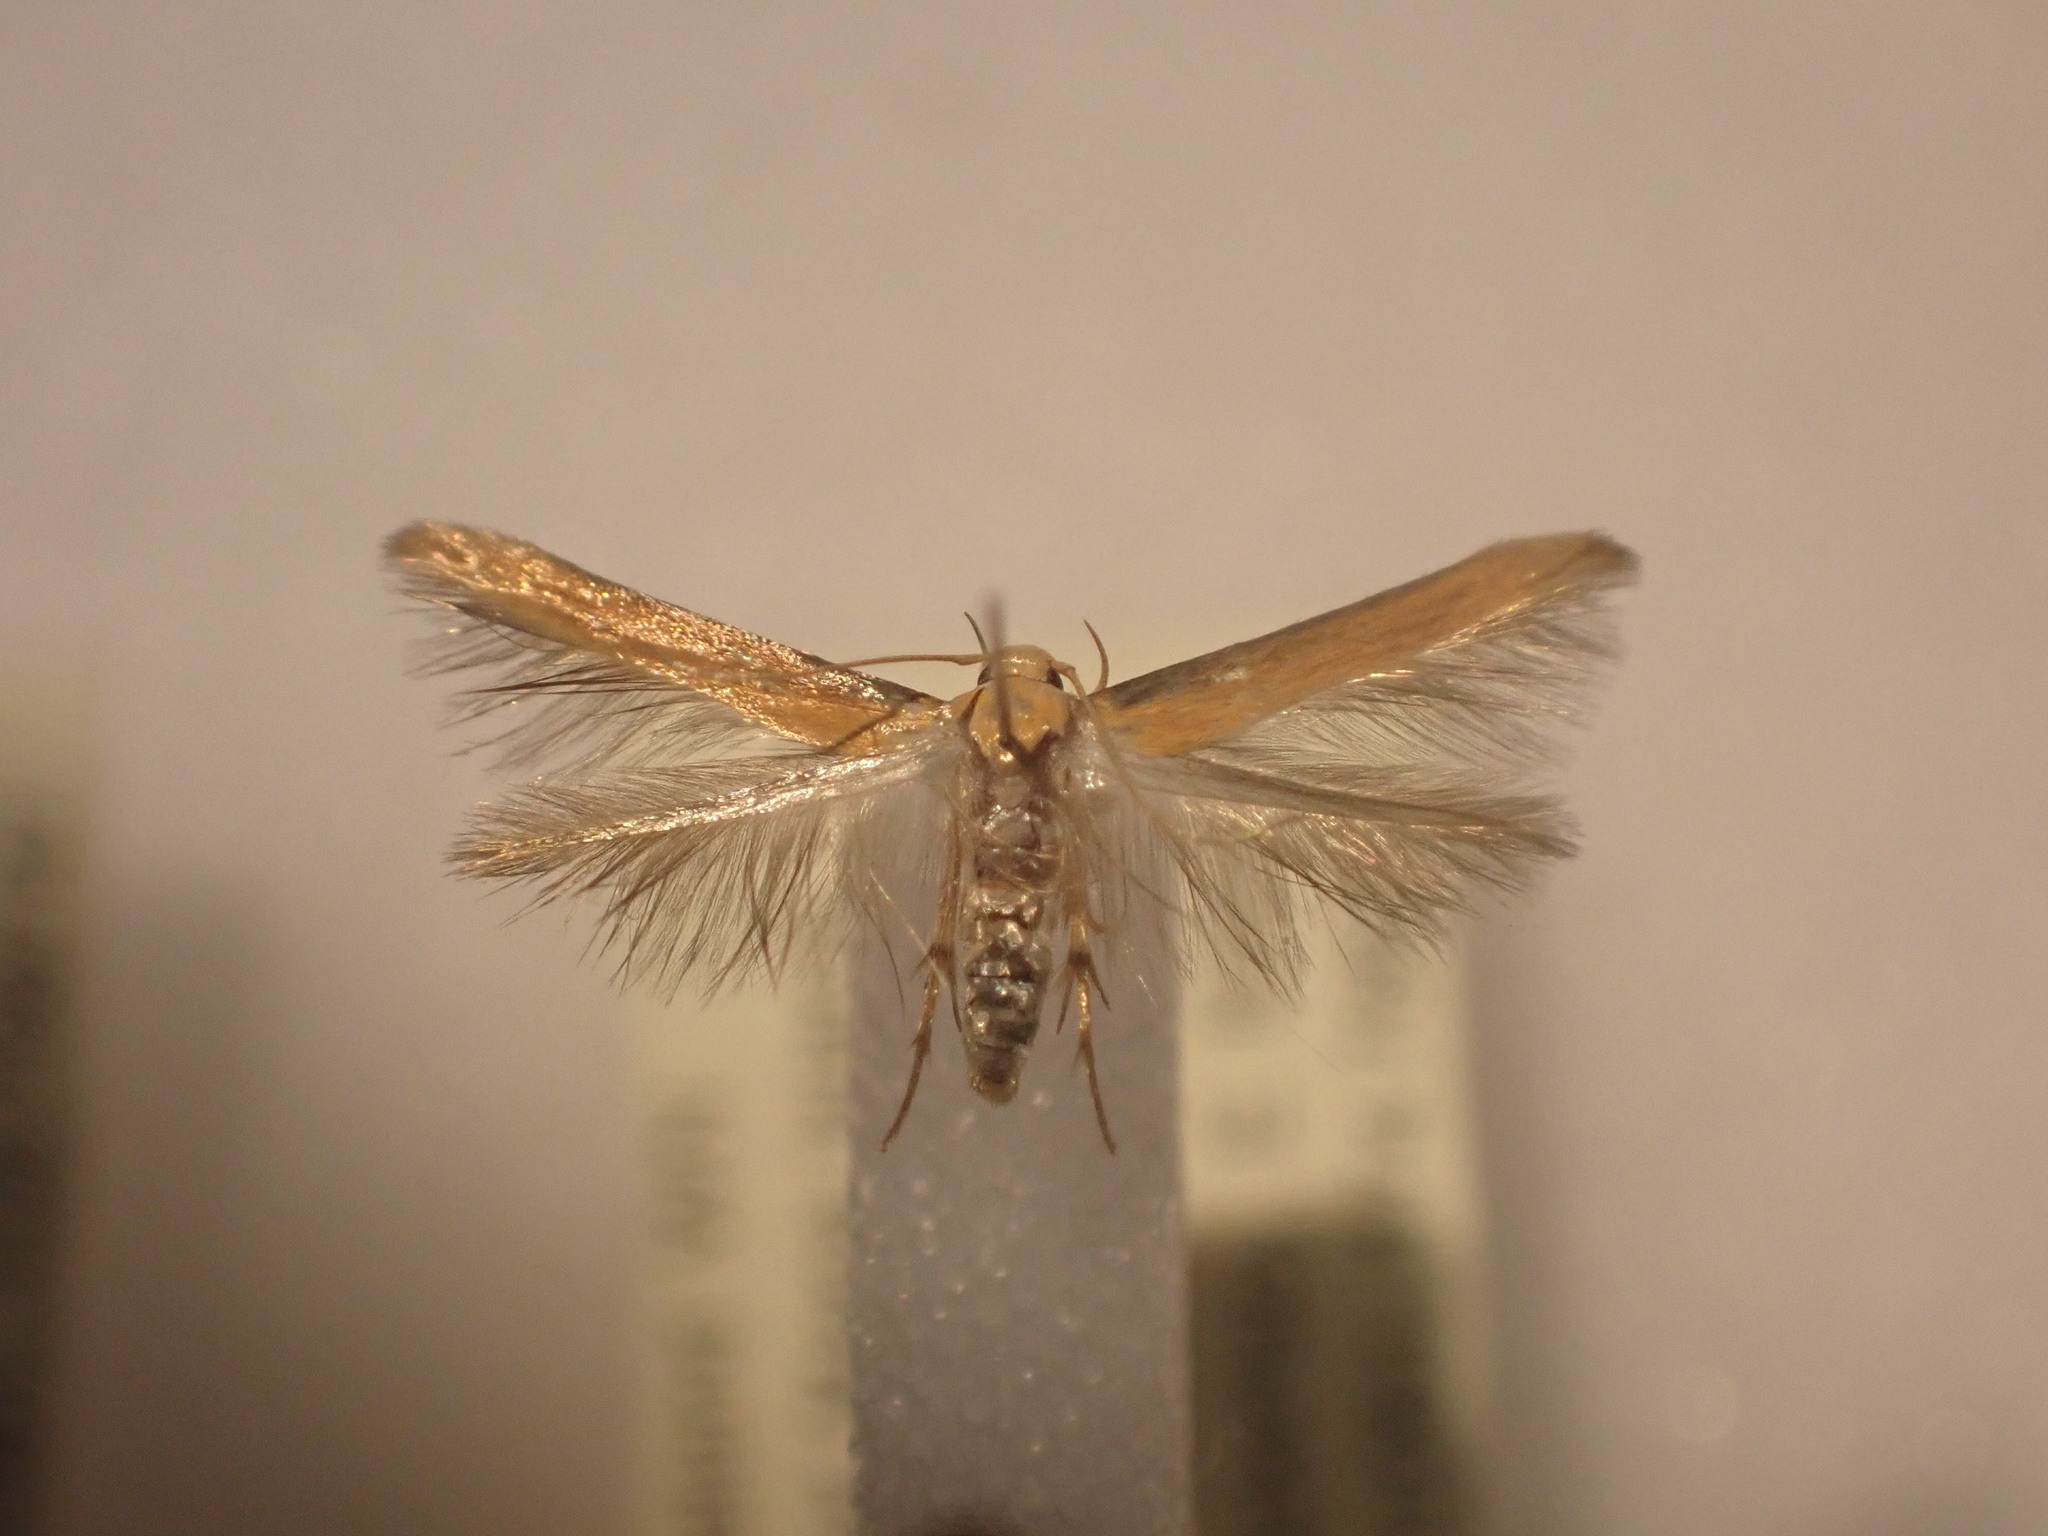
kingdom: Animalia
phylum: Arthropoda
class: Insecta
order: Lepidoptera
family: Stathmopodidae
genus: Stathmopoda
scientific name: Stathmopoda skelloni
